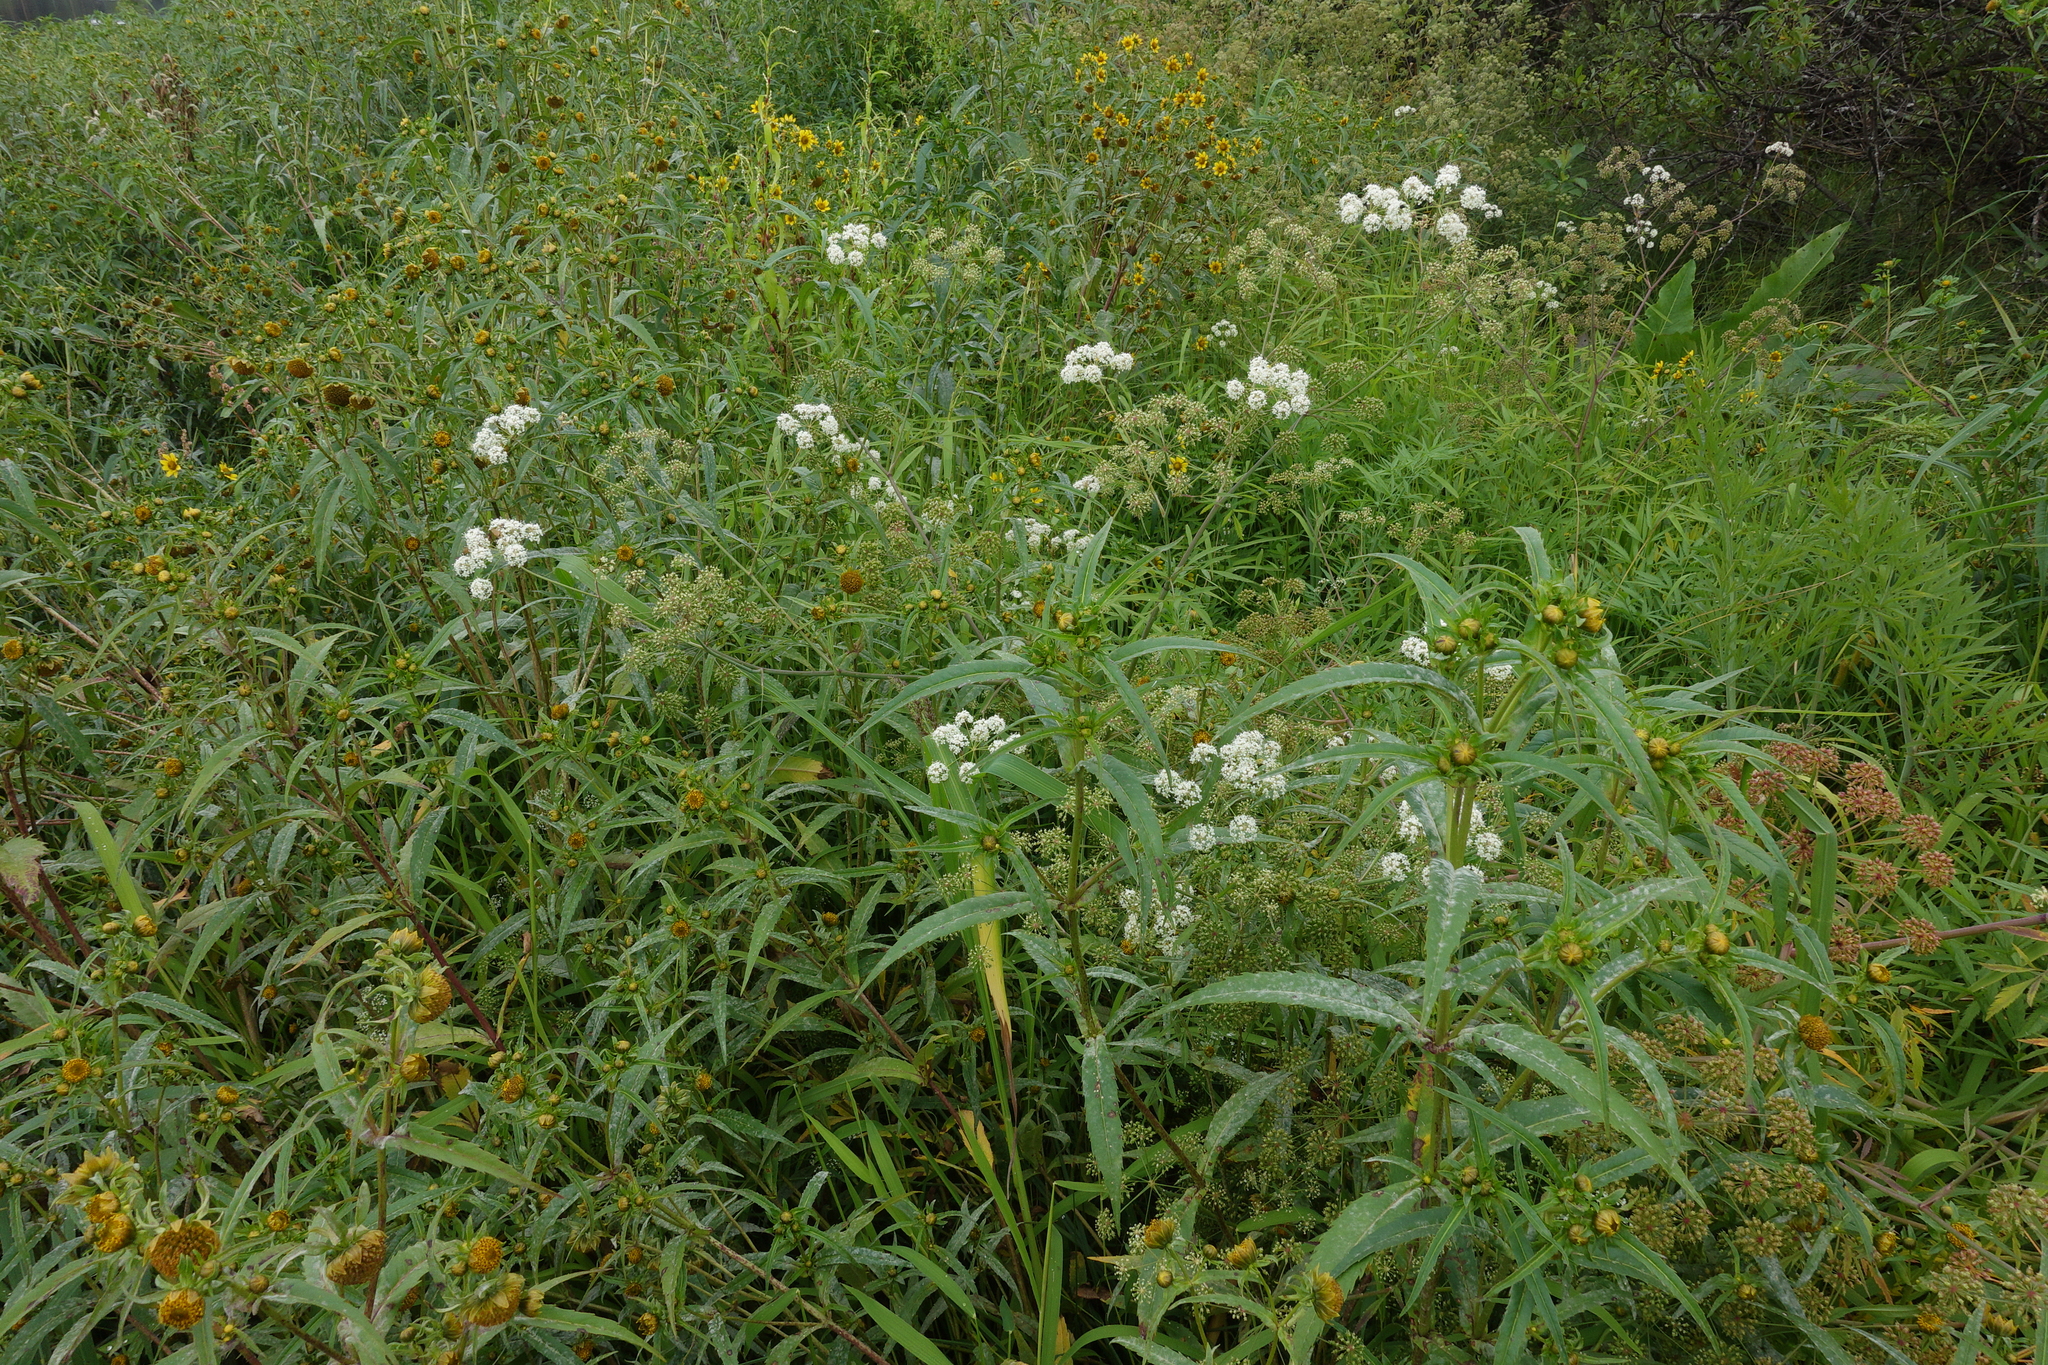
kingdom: Plantae
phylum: Tracheophyta
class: Magnoliopsida
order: Asterales
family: Asteraceae
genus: Bidens
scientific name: Bidens cernua
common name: Nodding bur-marigold
